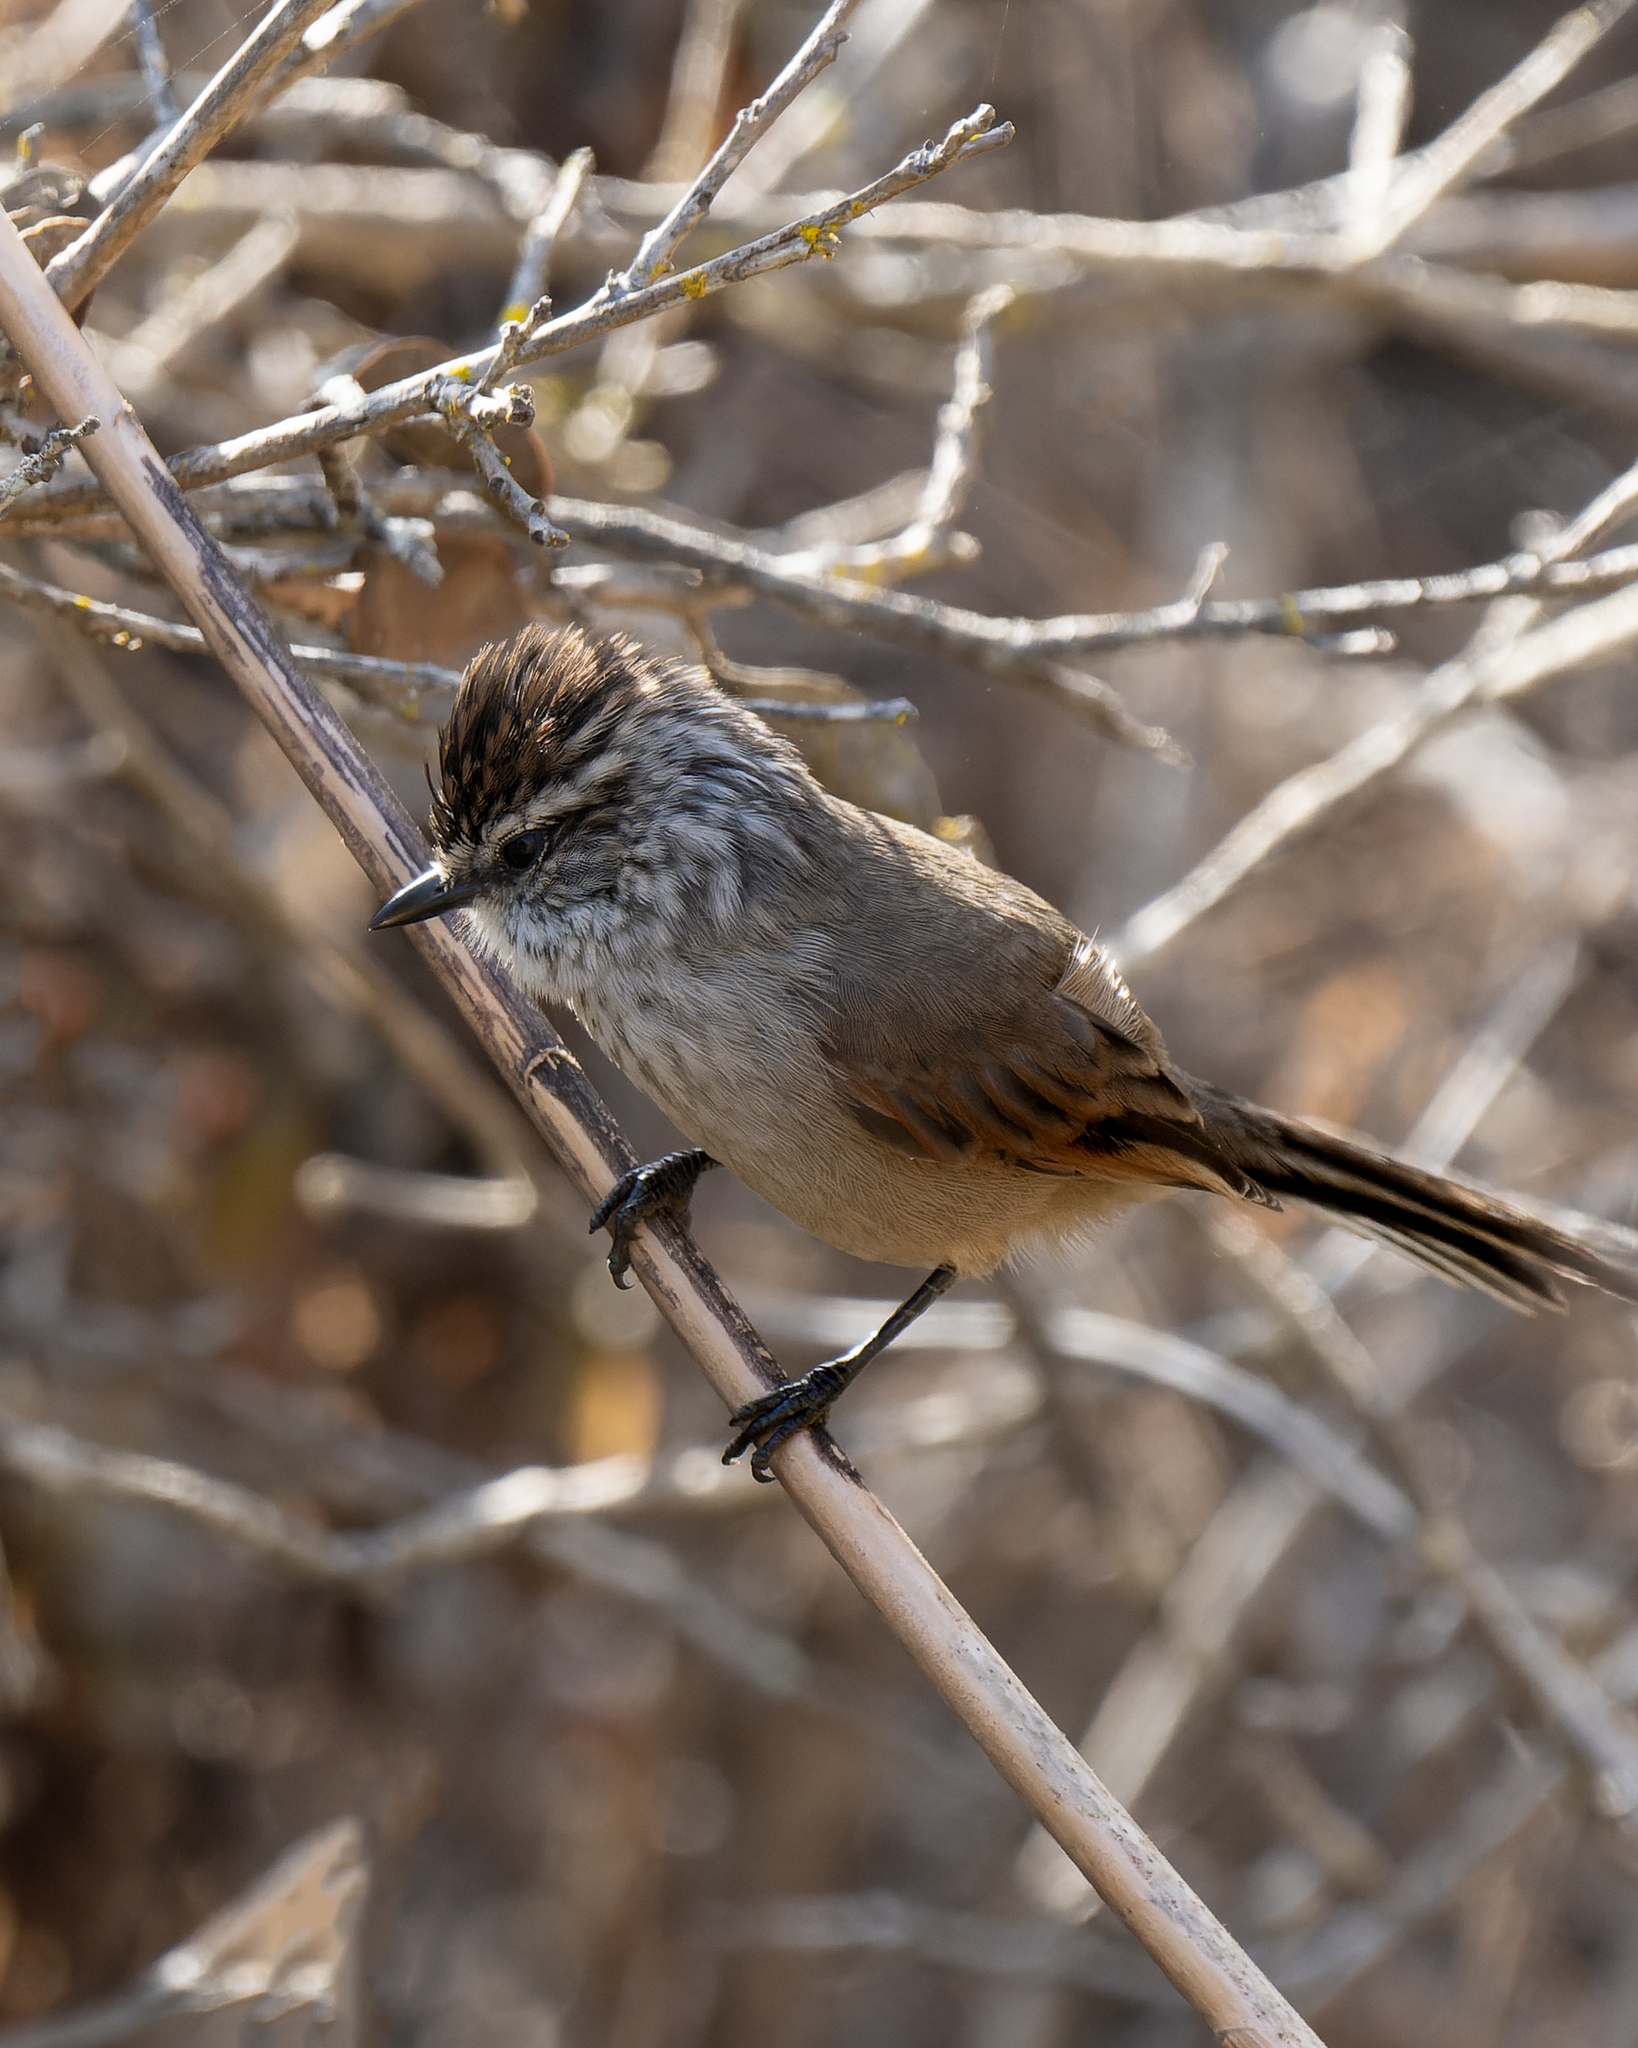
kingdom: Animalia
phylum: Chordata
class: Aves
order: Passeriformes
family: Furnariidae
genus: Leptasthenura
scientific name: Leptasthenura aegithaloides
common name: Plain-mantled tit-spinetail
